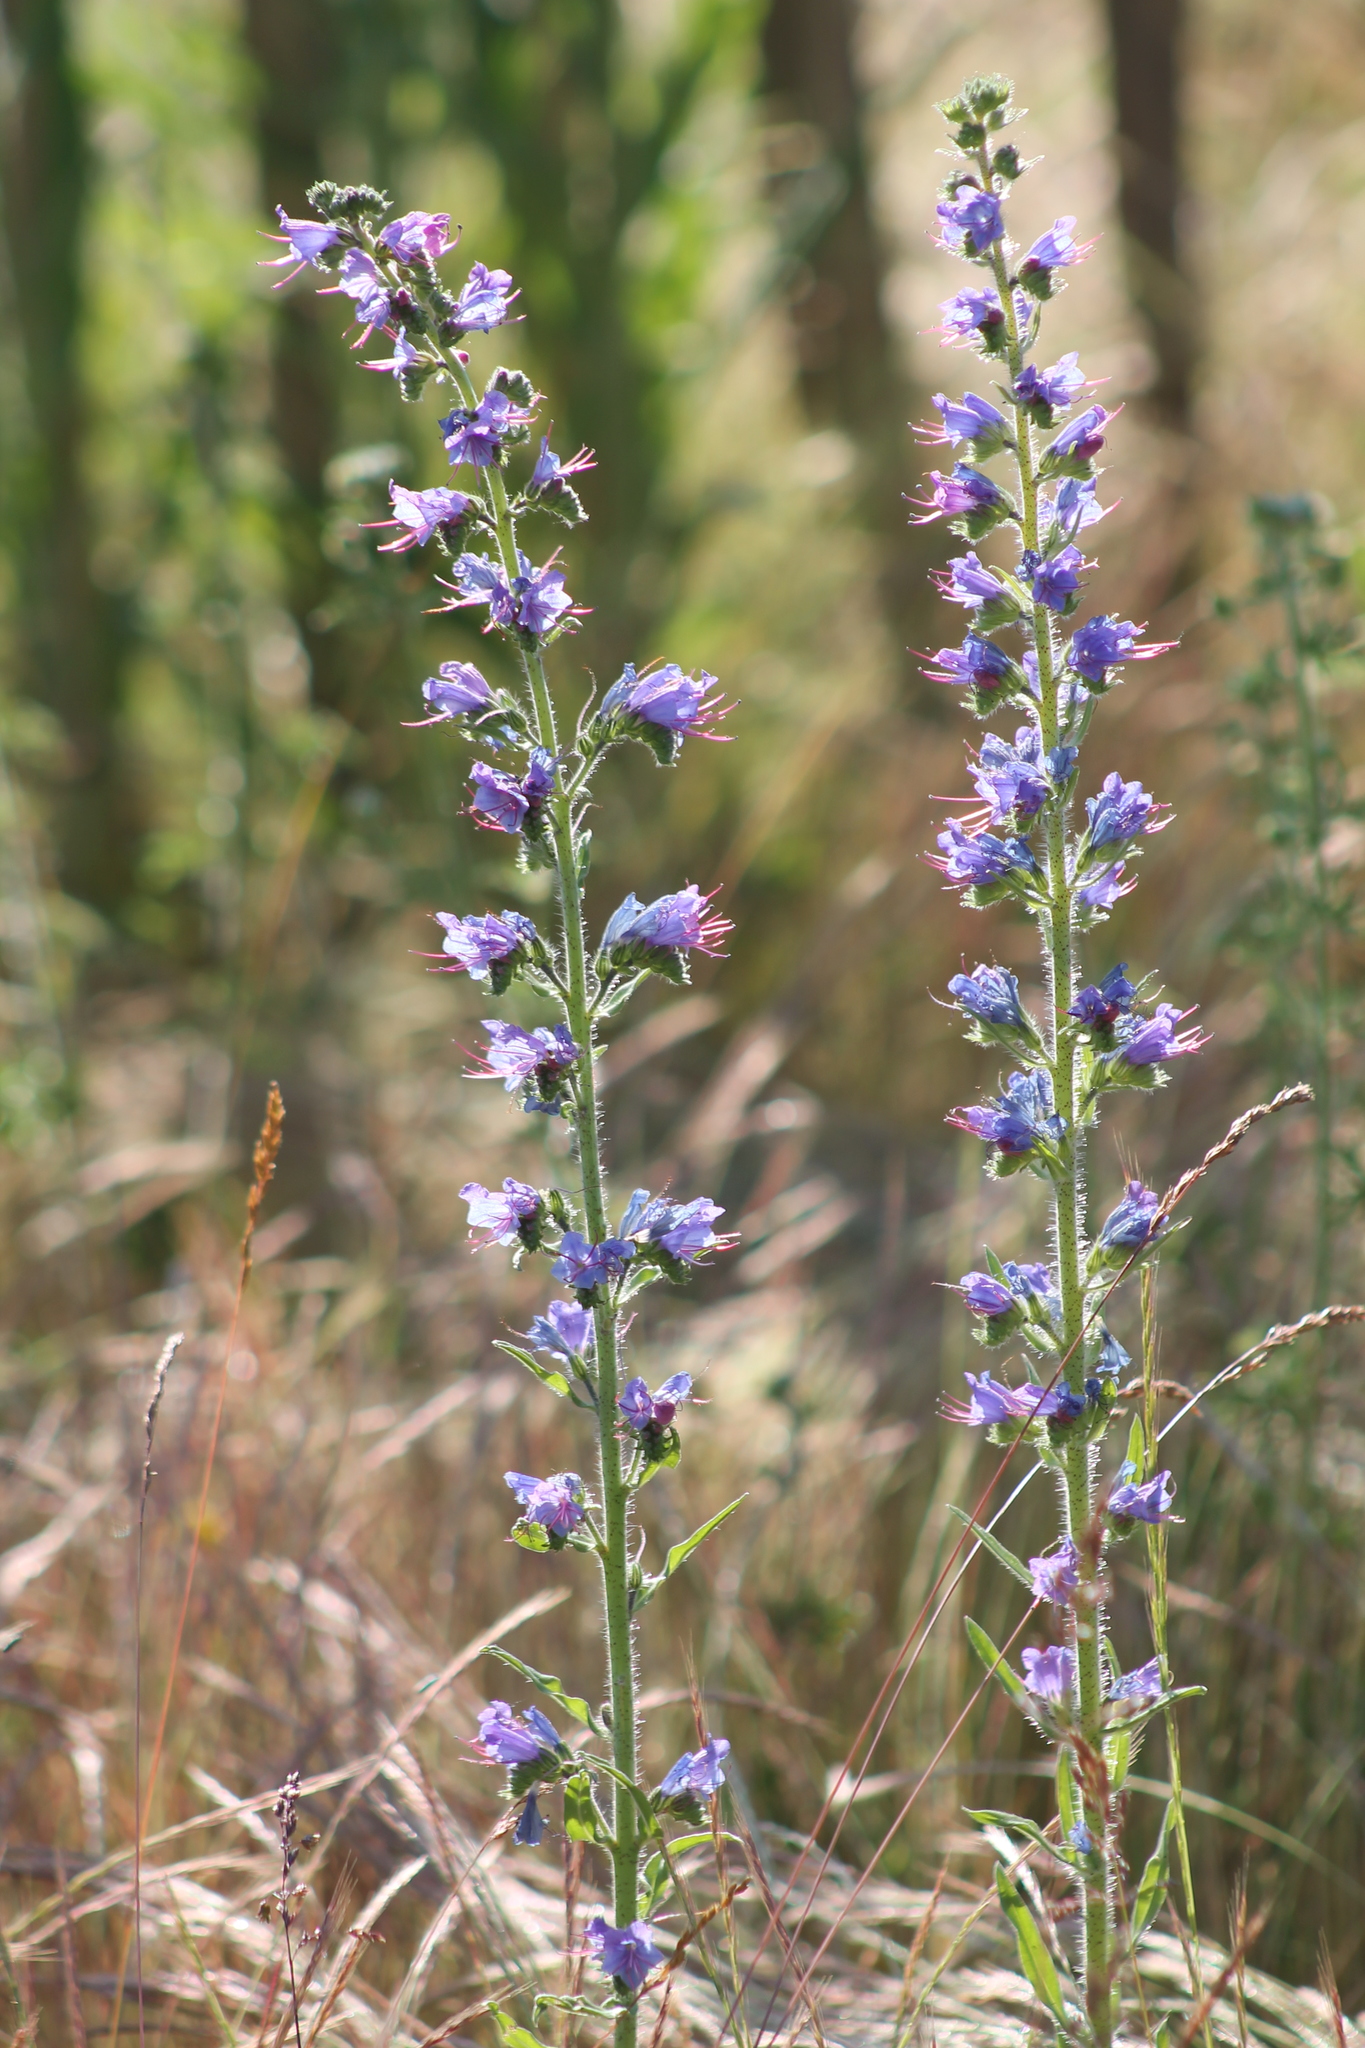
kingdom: Plantae
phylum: Tracheophyta
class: Magnoliopsida
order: Boraginales
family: Boraginaceae
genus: Echium
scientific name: Echium vulgare
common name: Common viper's bugloss
